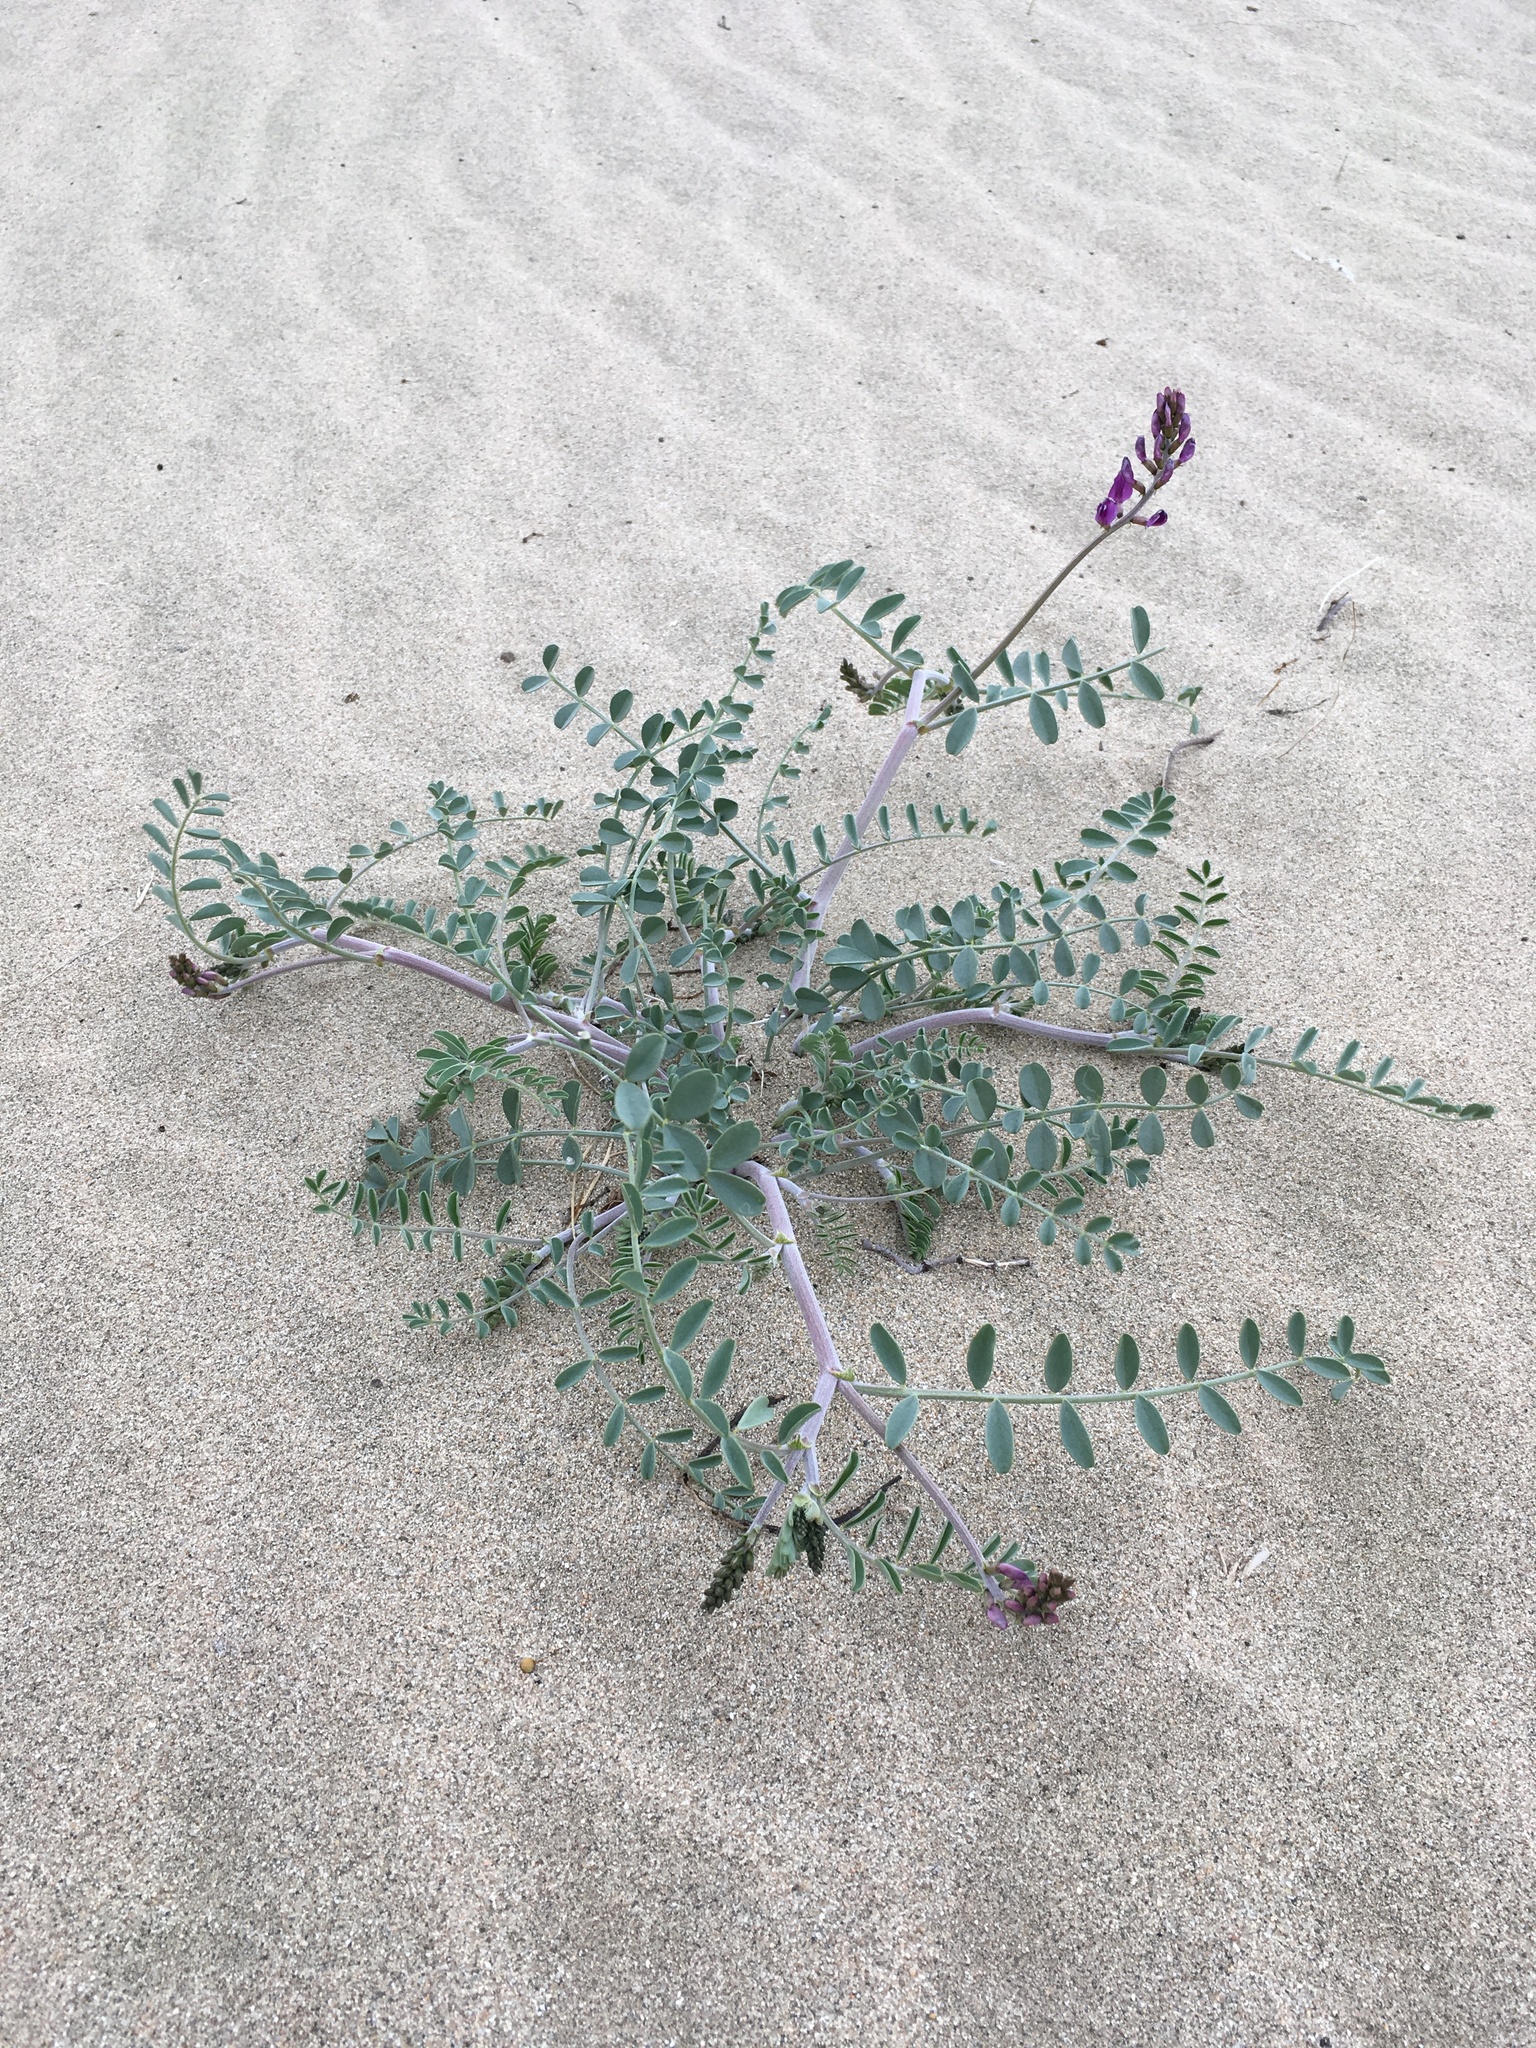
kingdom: Plantae
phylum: Tracheophyta
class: Magnoliopsida
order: Fabales
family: Fabaceae
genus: Astragalus
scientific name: Astragalus lentiginosus
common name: Freckled milkvetch
